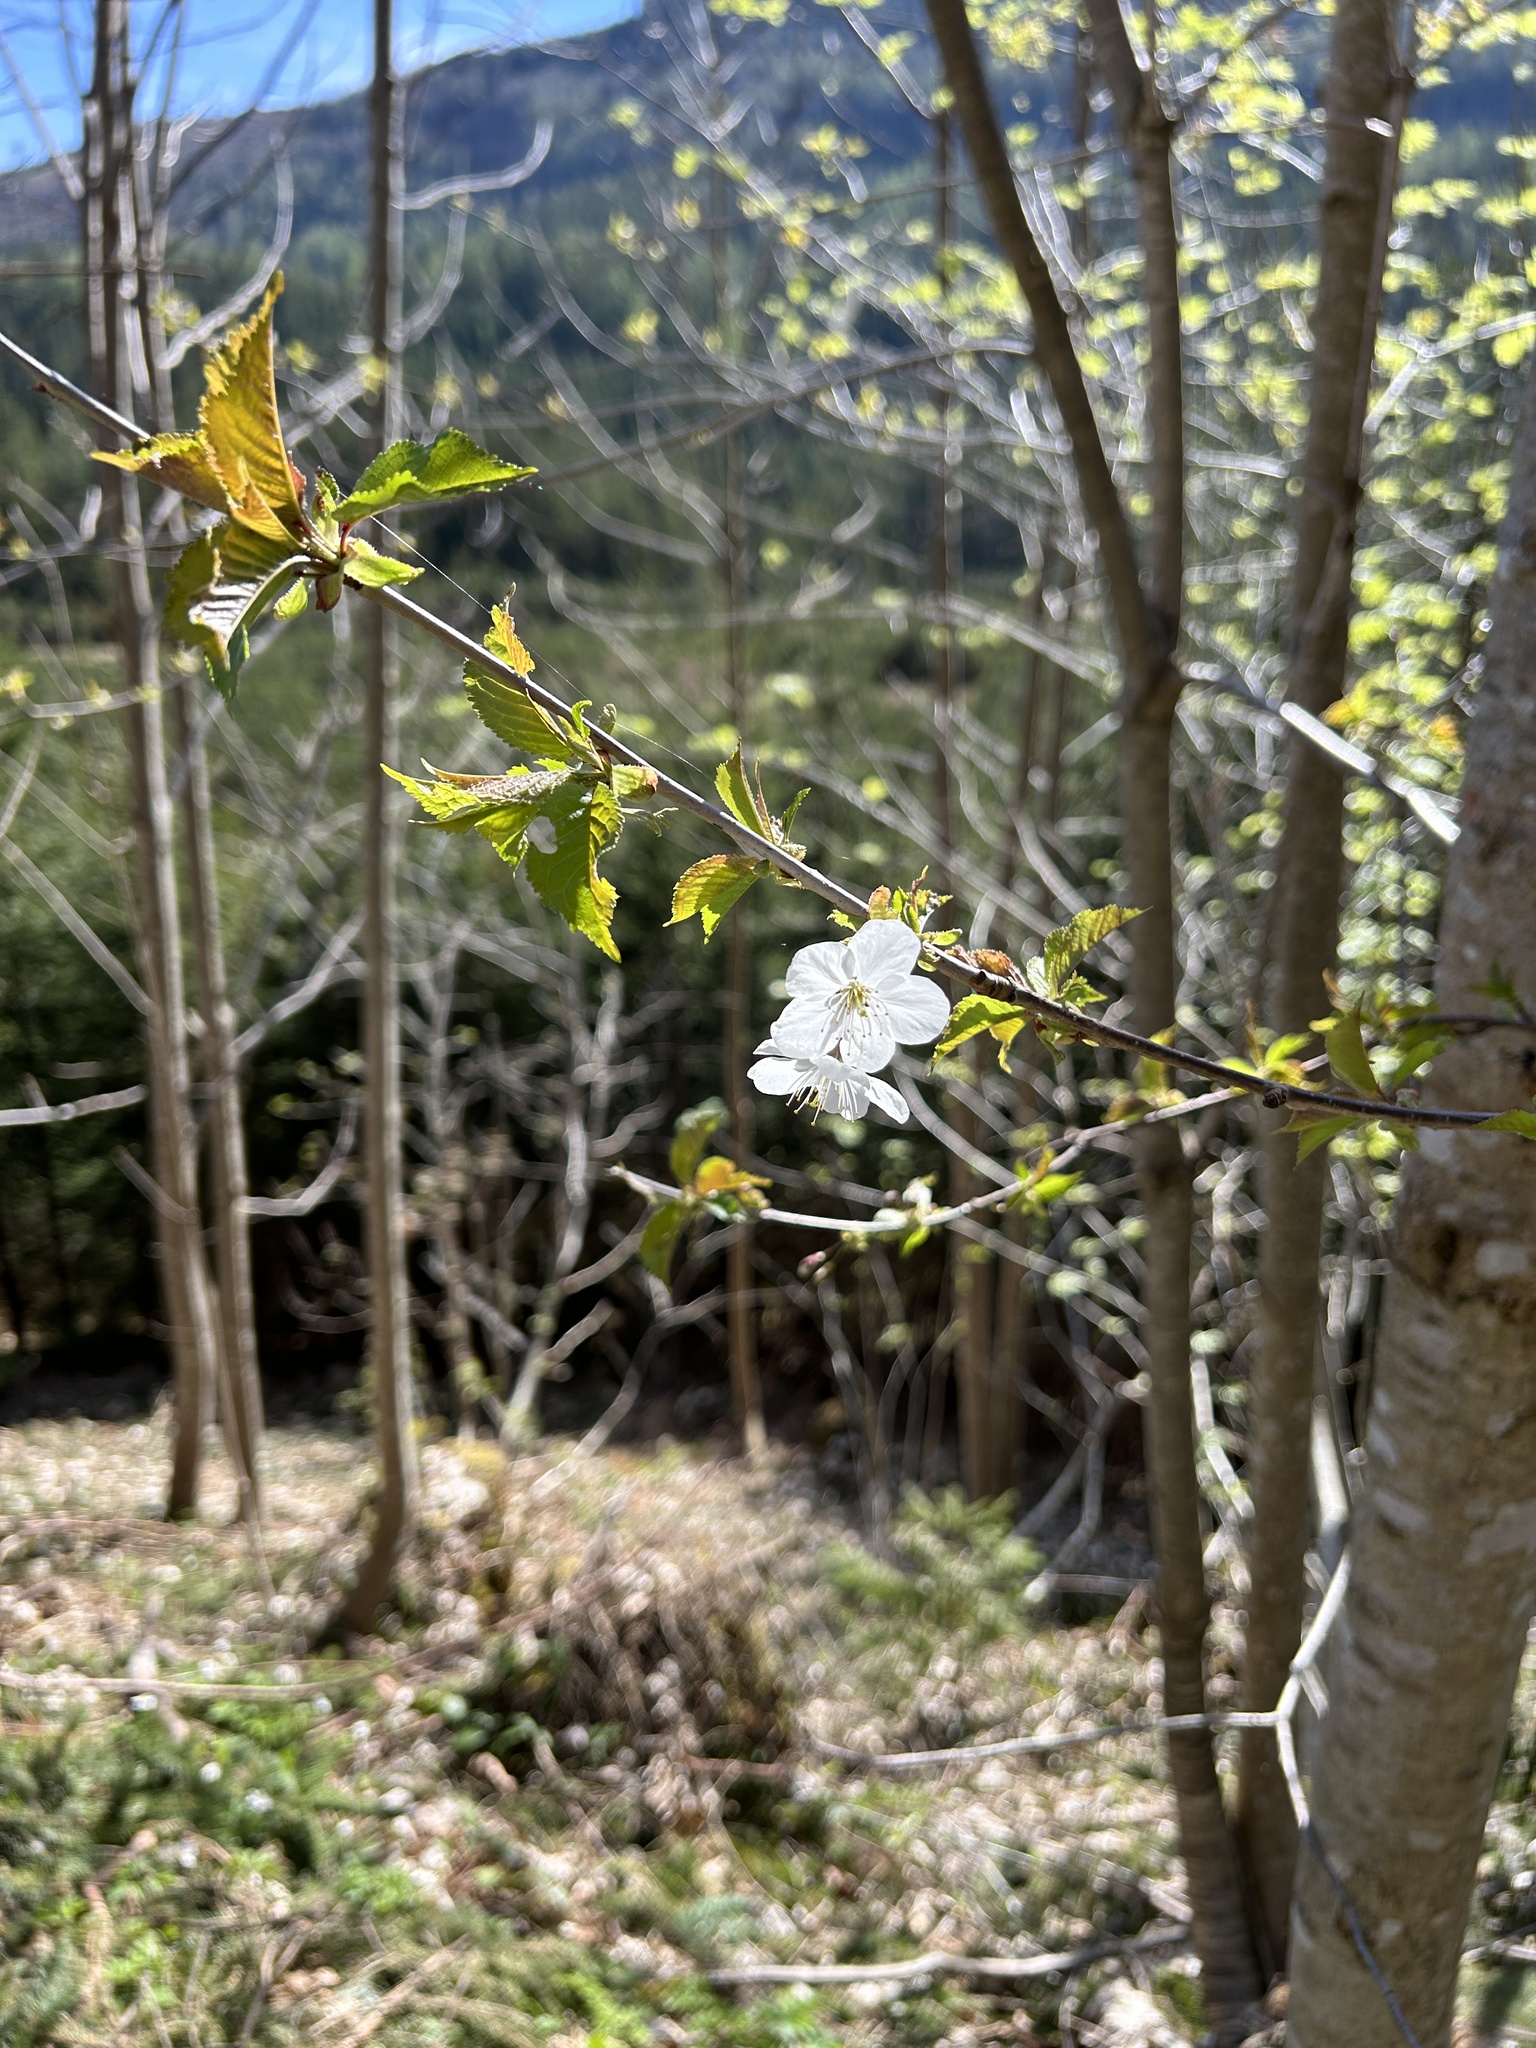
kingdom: Plantae
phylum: Tracheophyta
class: Magnoliopsida
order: Rosales
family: Rosaceae
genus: Prunus
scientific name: Prunus avium
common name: Sweet cherry
